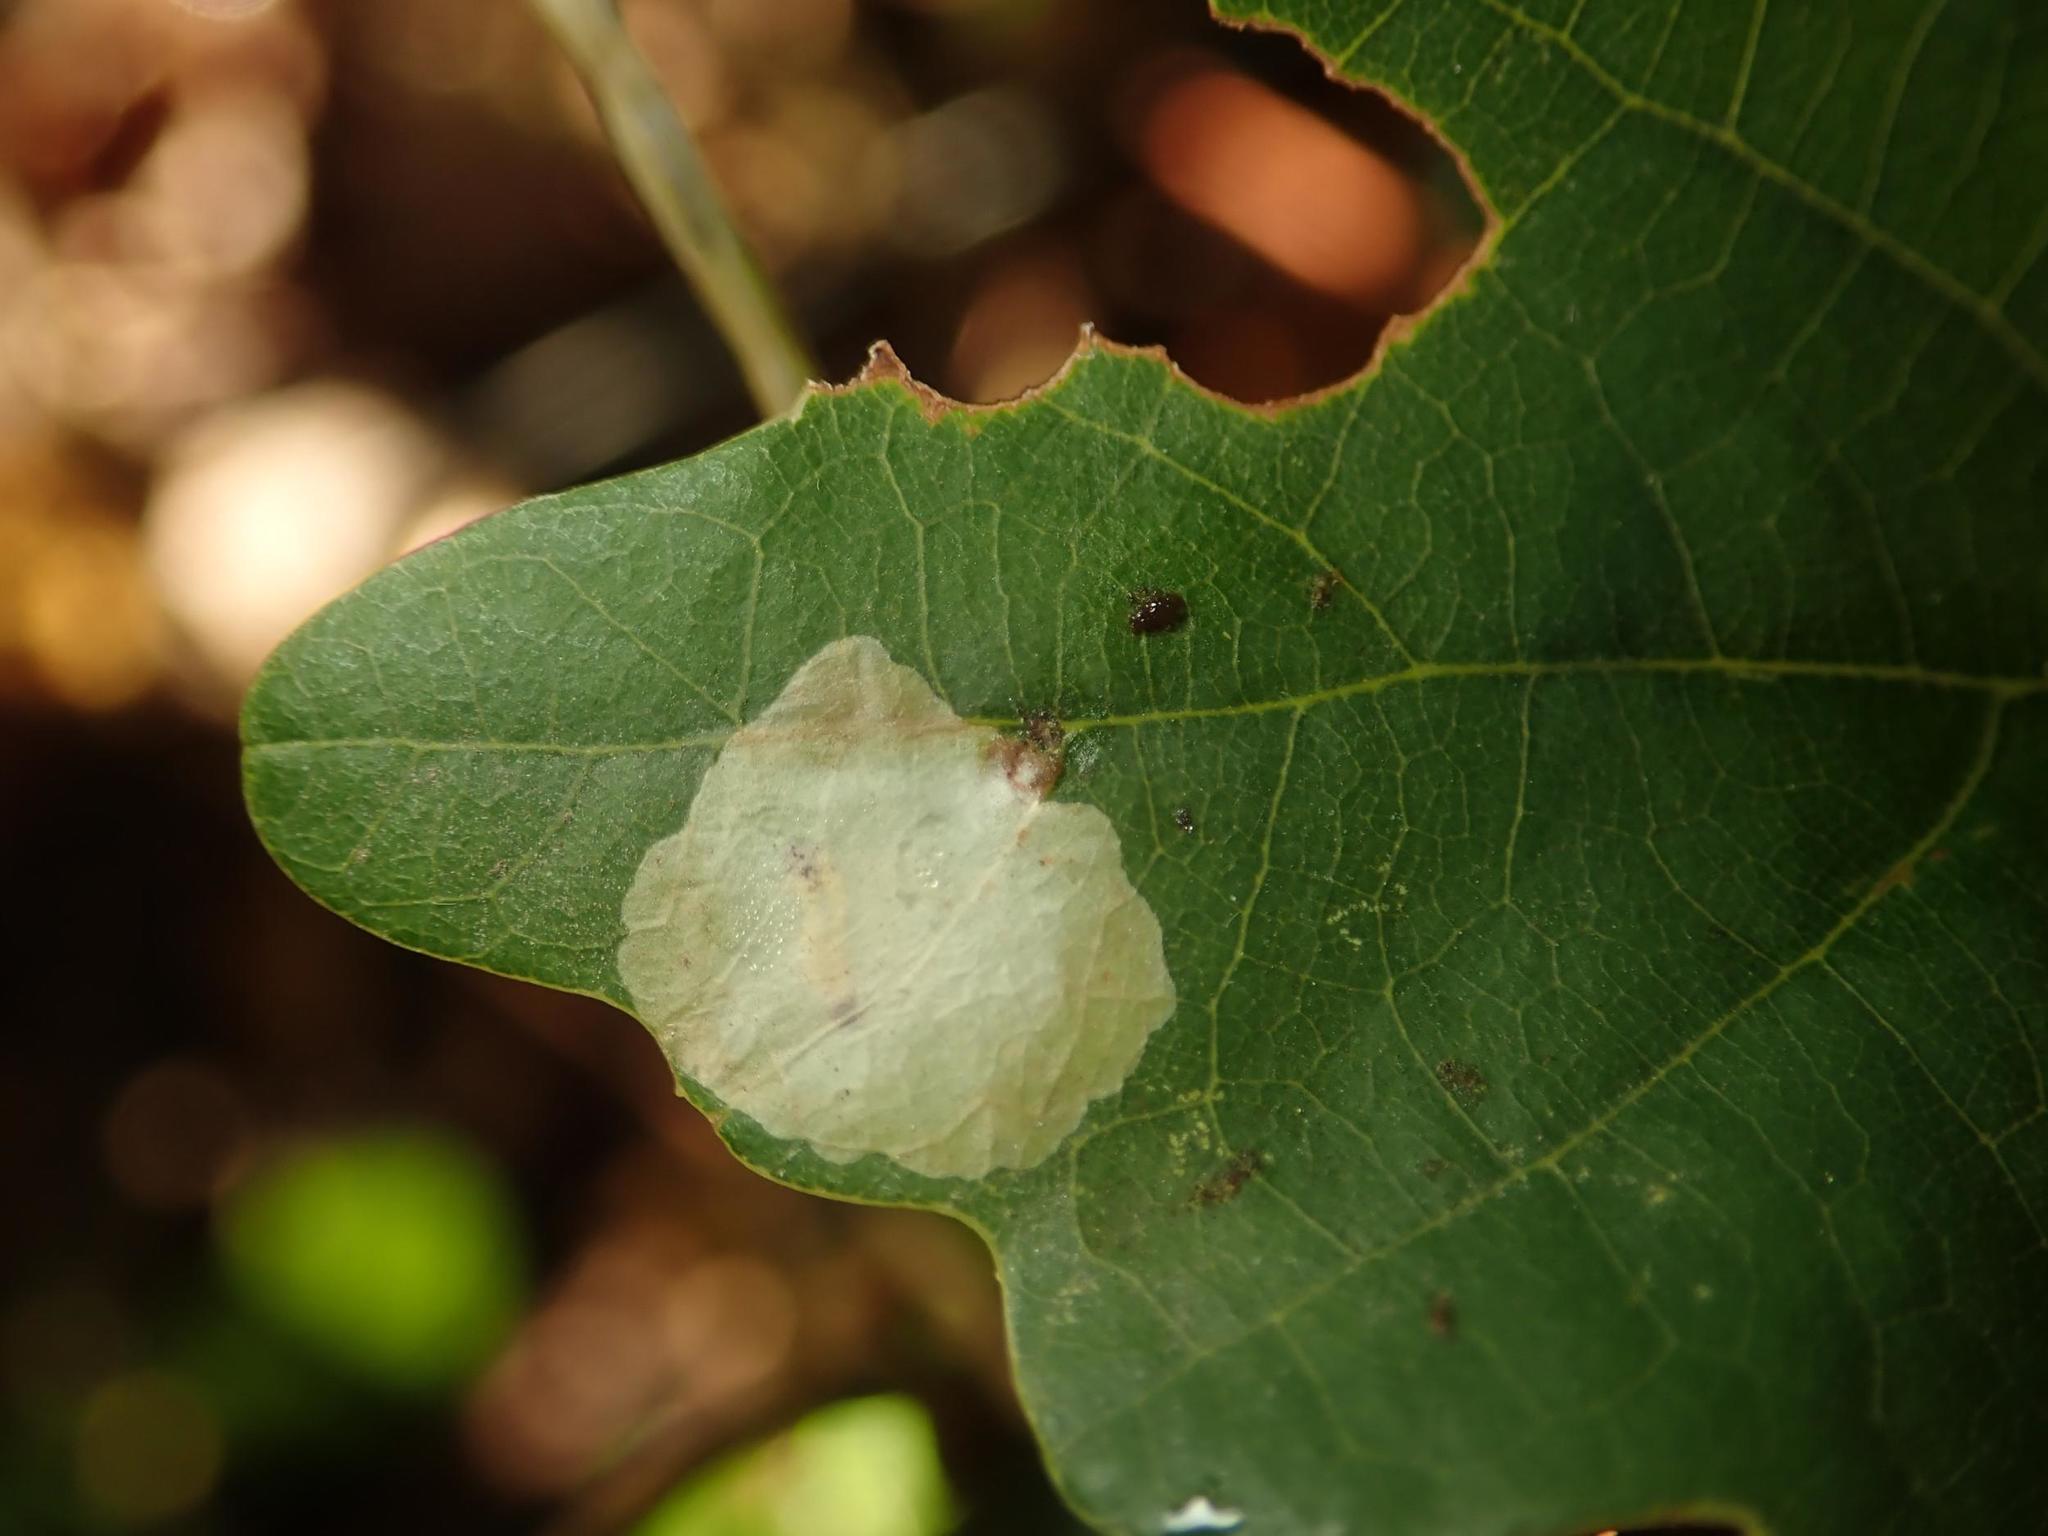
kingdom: Animalia
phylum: Arthropoda
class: Insecta
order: Lepidoptera
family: Tischeriidae
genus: Tischeria
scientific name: Tischeria ekebladella
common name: Oak carl
